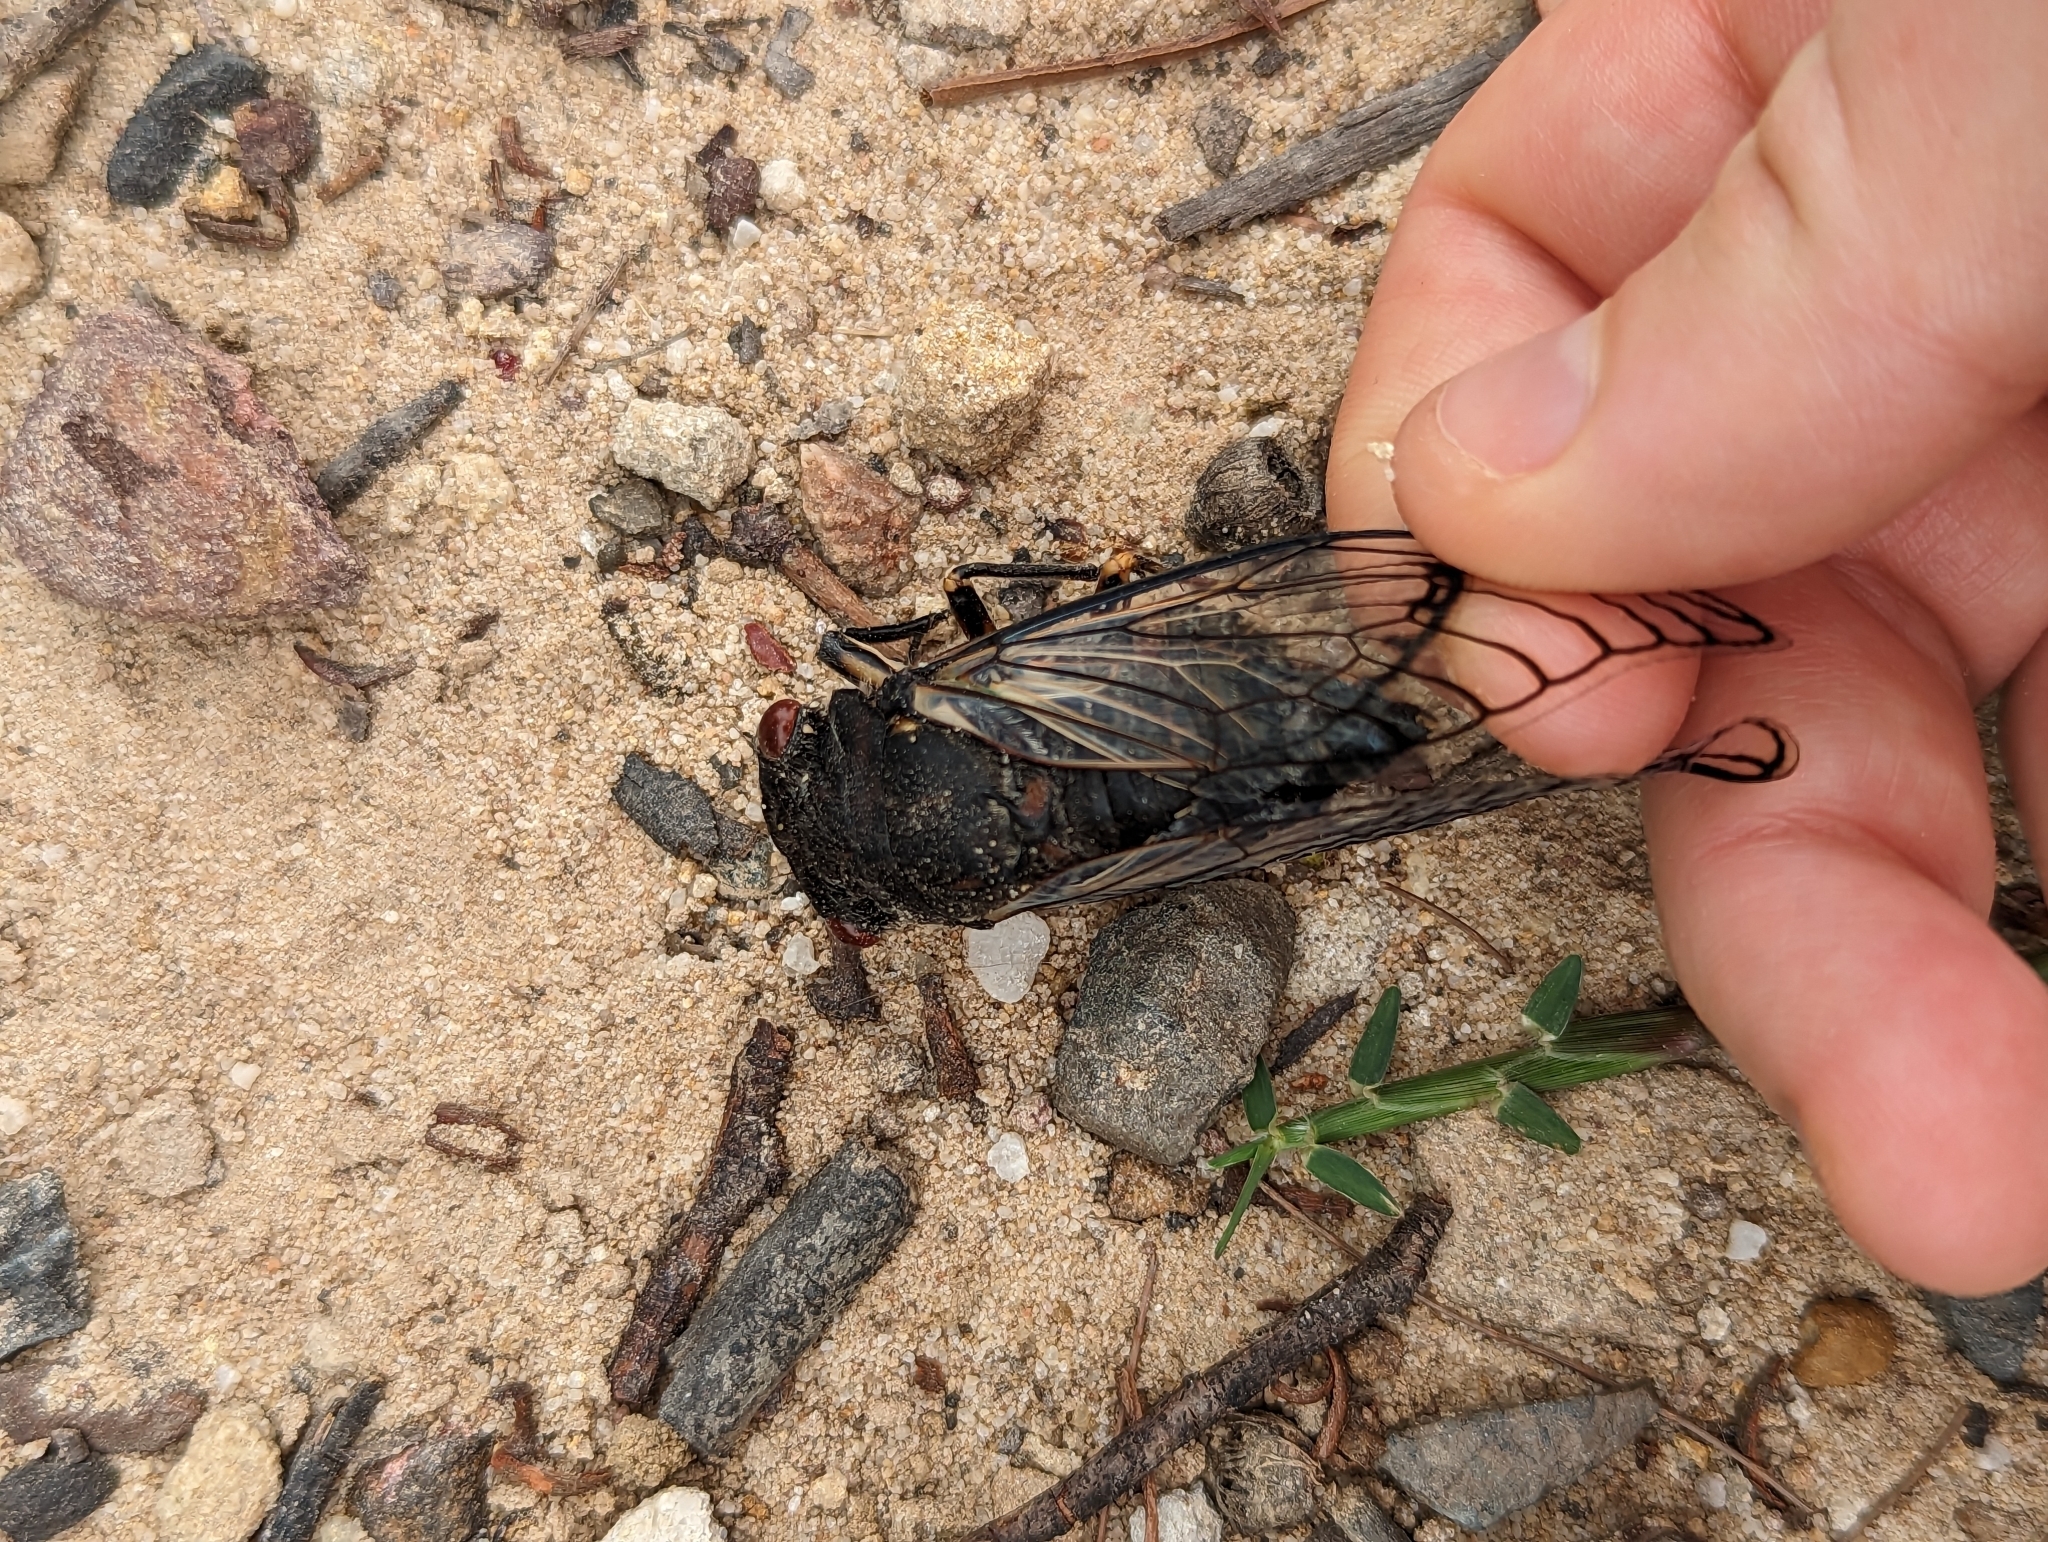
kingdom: Animalia
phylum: Arthropoda
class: Insecta
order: Hemiptera
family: Cicadidae
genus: Psaltoda
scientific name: Psaltoda moerens
